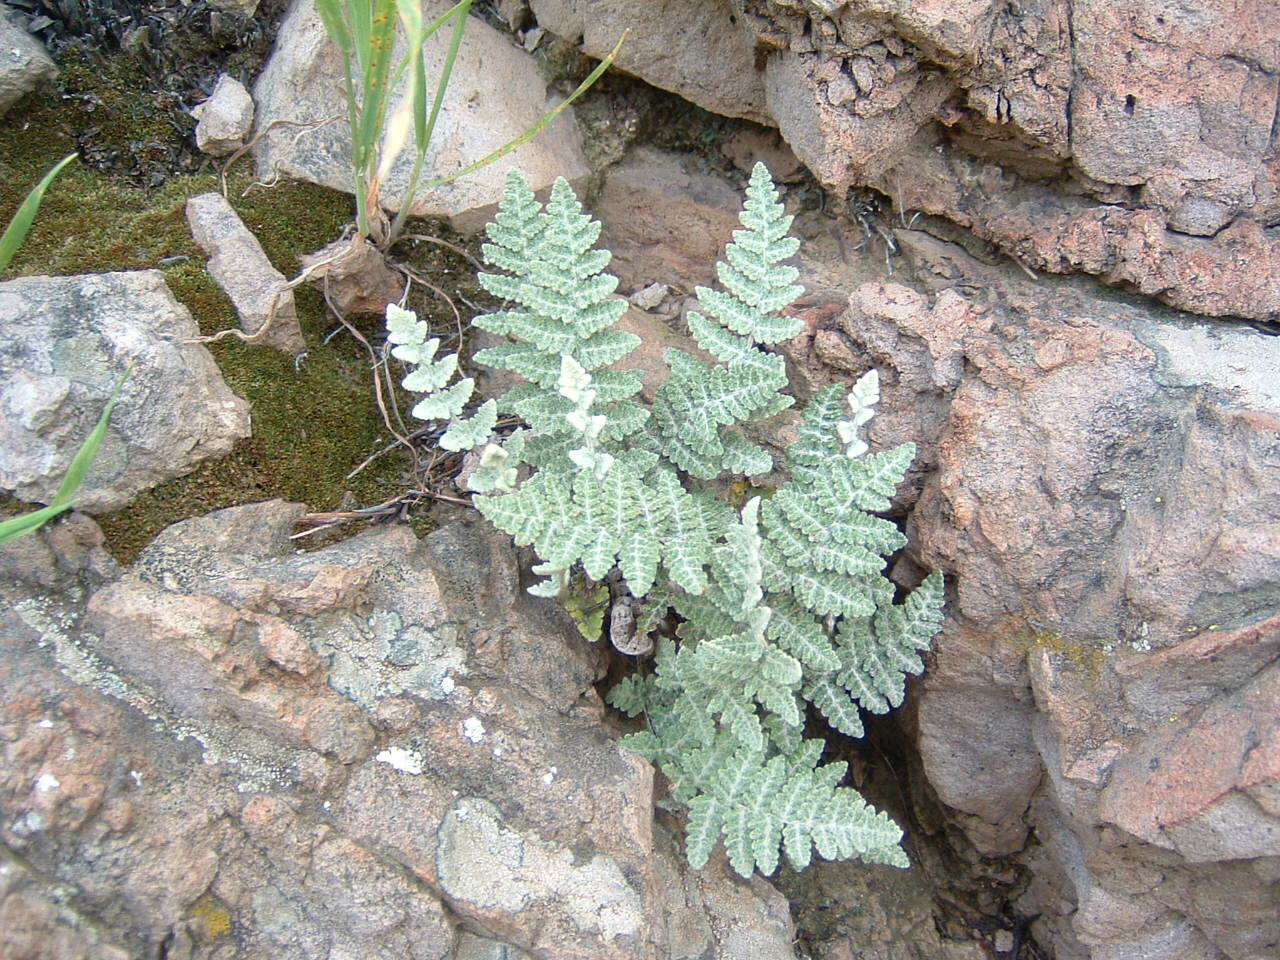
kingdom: Plantae
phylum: Tracheophyta
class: Polypodiopsida
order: Polypodiales
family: Pteridaceae
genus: Myriopteris
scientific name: Myriopteris newberryi
